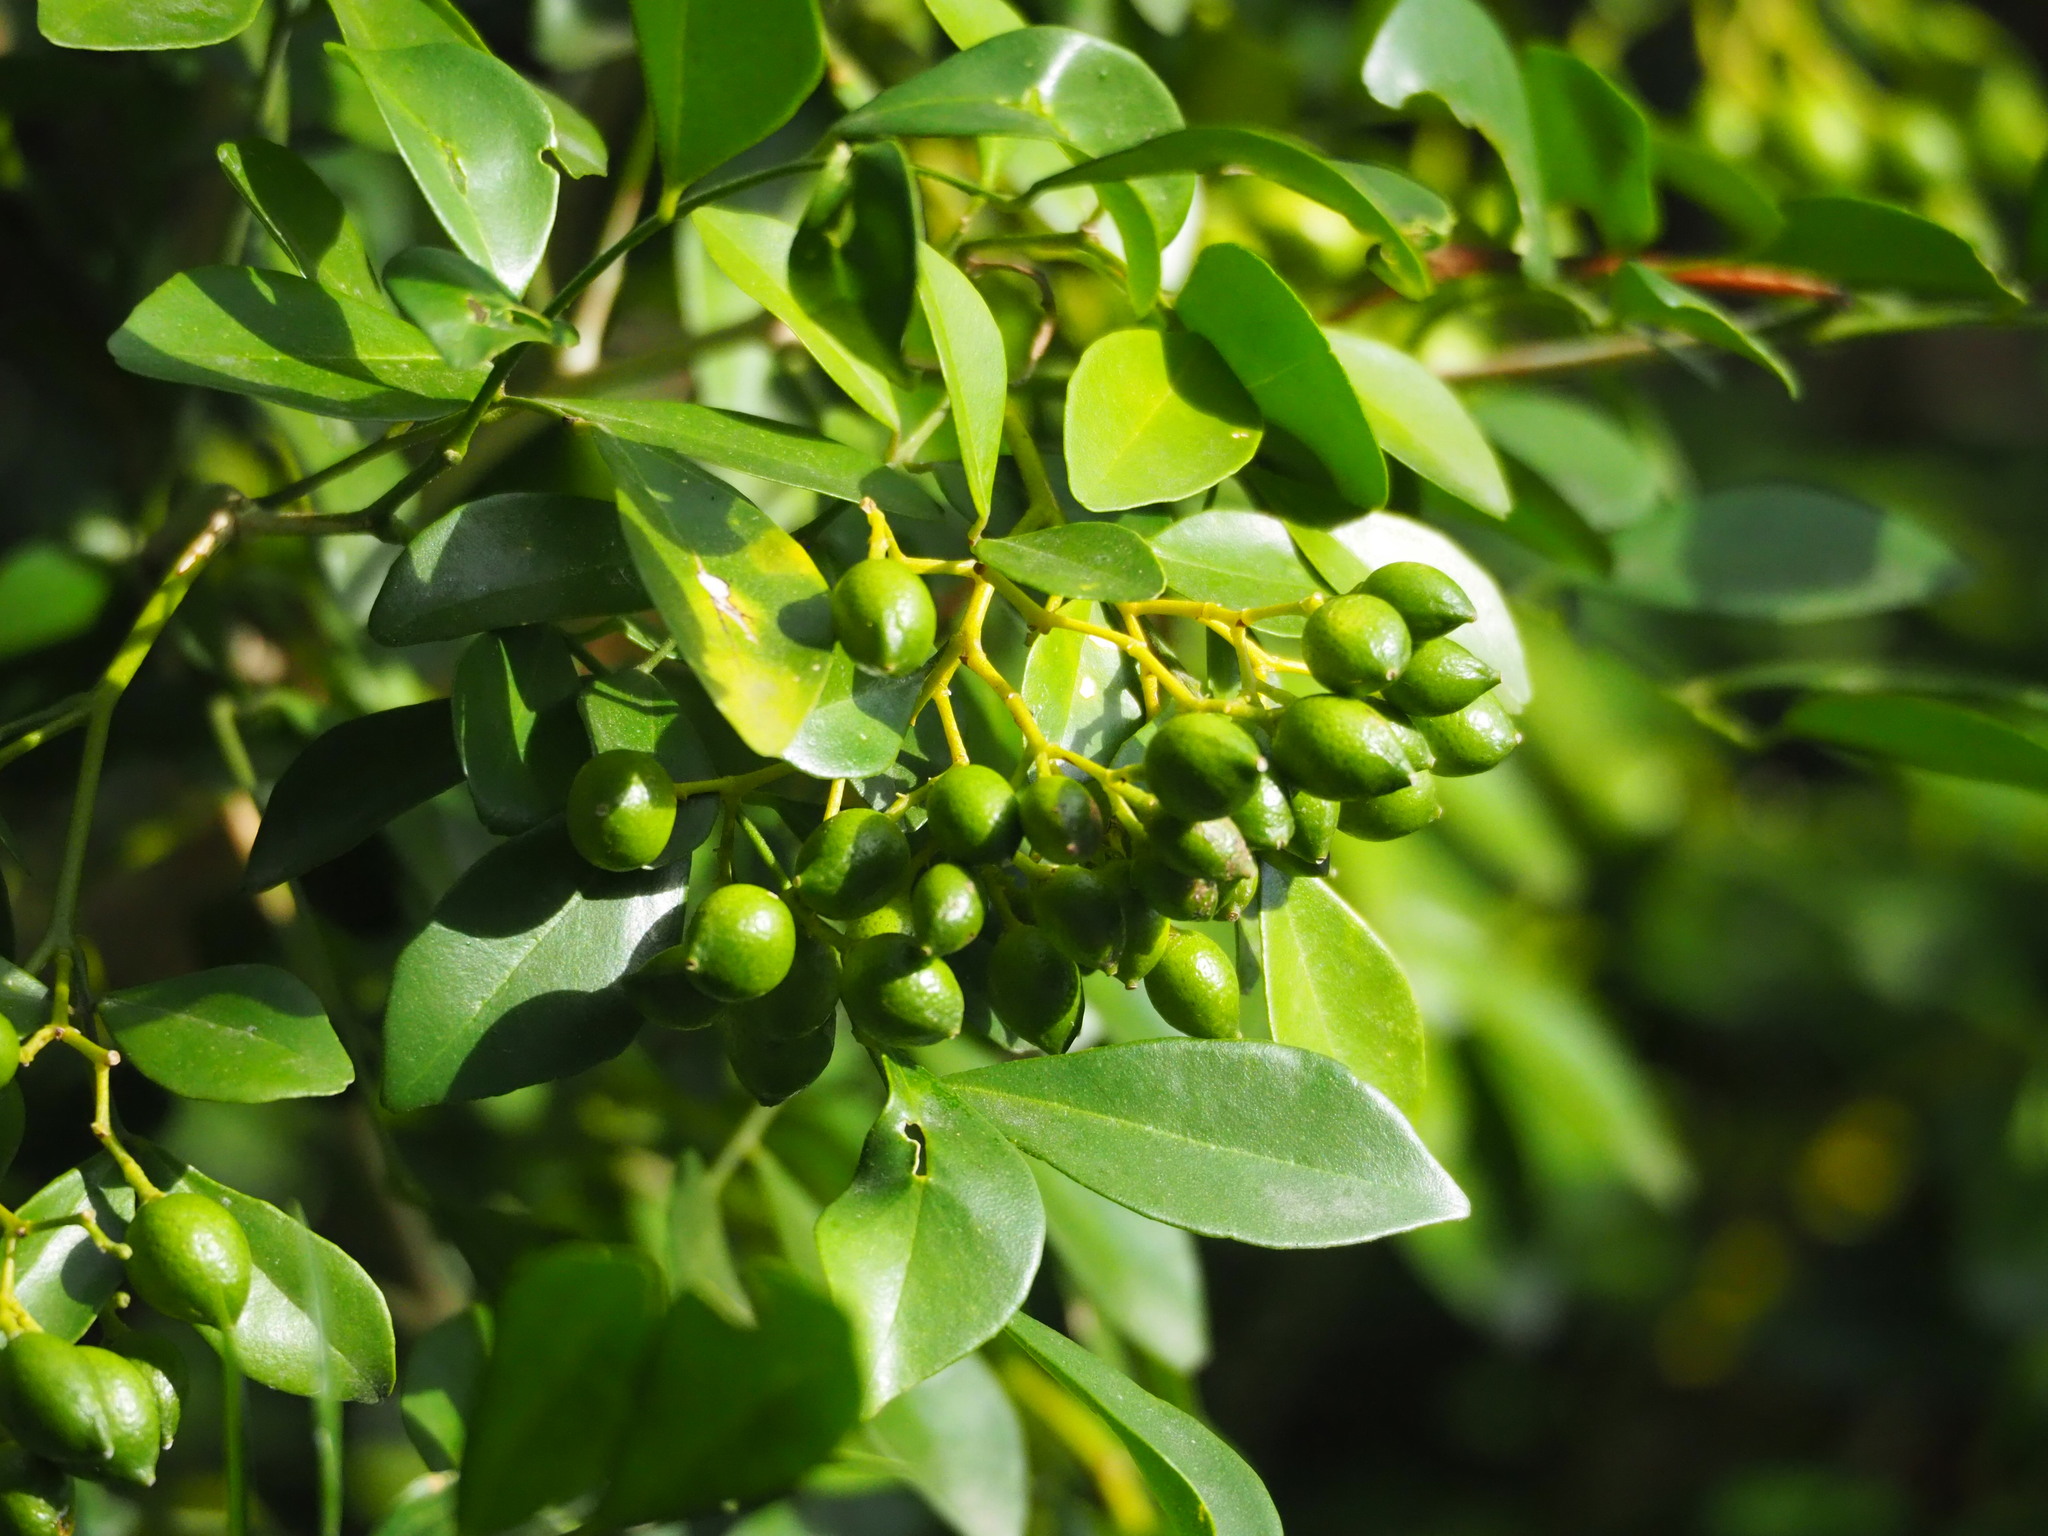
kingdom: Plantae
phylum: Tracheophyta
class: Magnoliopsida
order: Sapindales
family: Rutaceae
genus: Murraya
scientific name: Murraya paniculata
